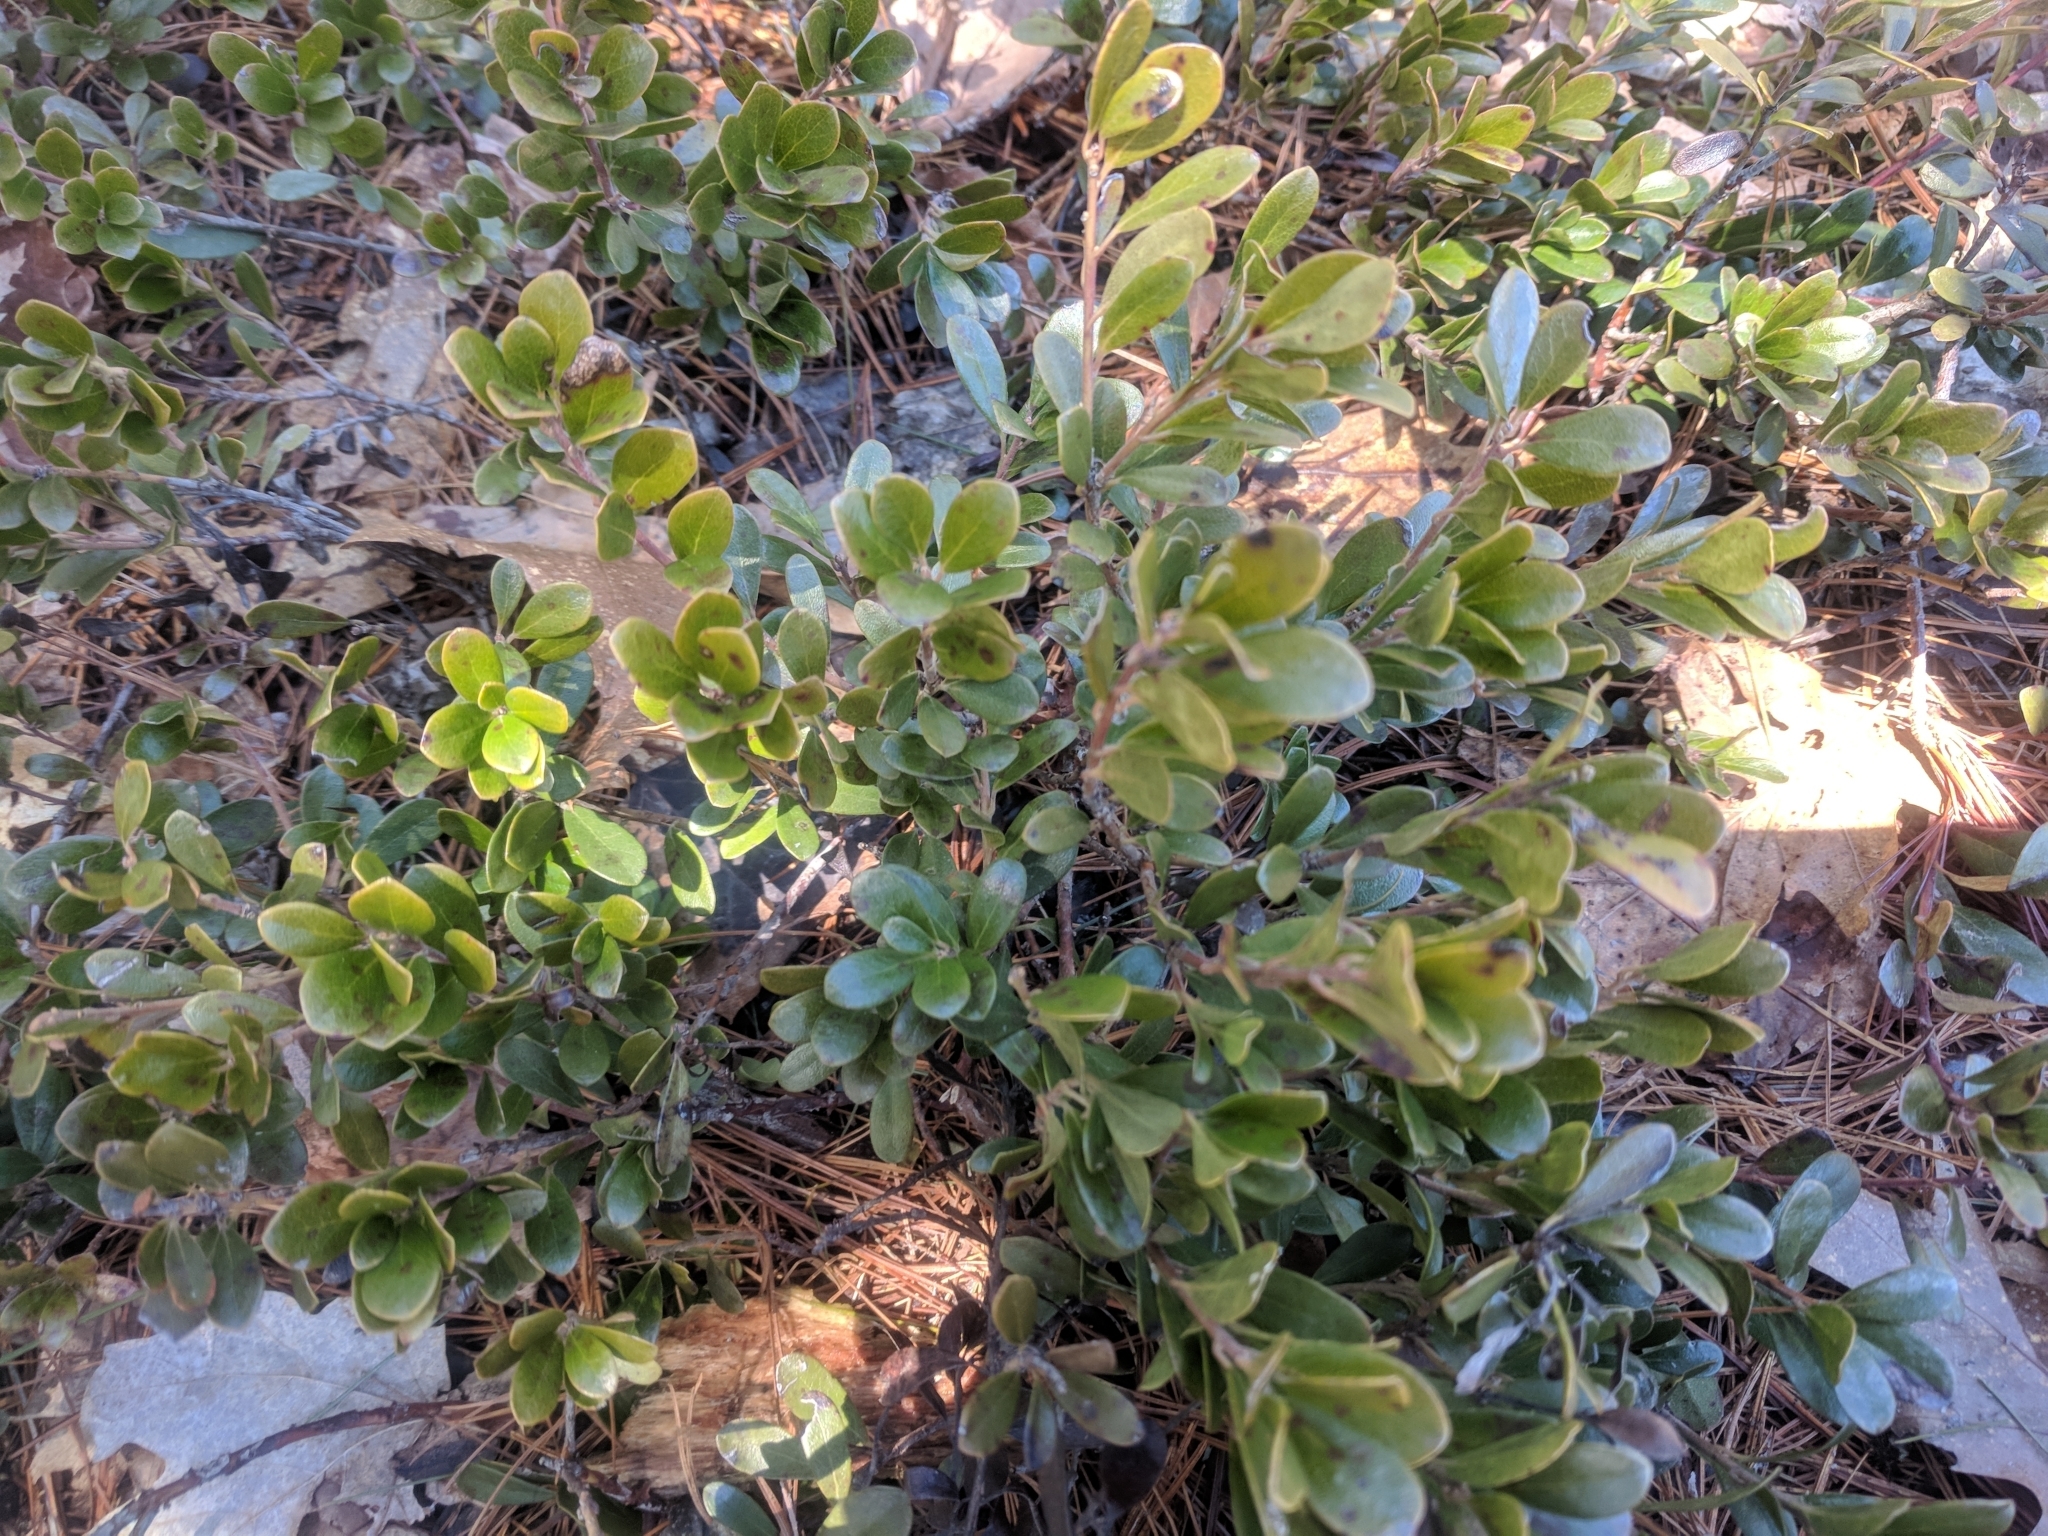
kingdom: Plantae
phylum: Tracheophyta
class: Magnoliopsida
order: Ericales
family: Ericaceae
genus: Arctostaphylos
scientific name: Arctostaphylos uva-ursi
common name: Bearberry
